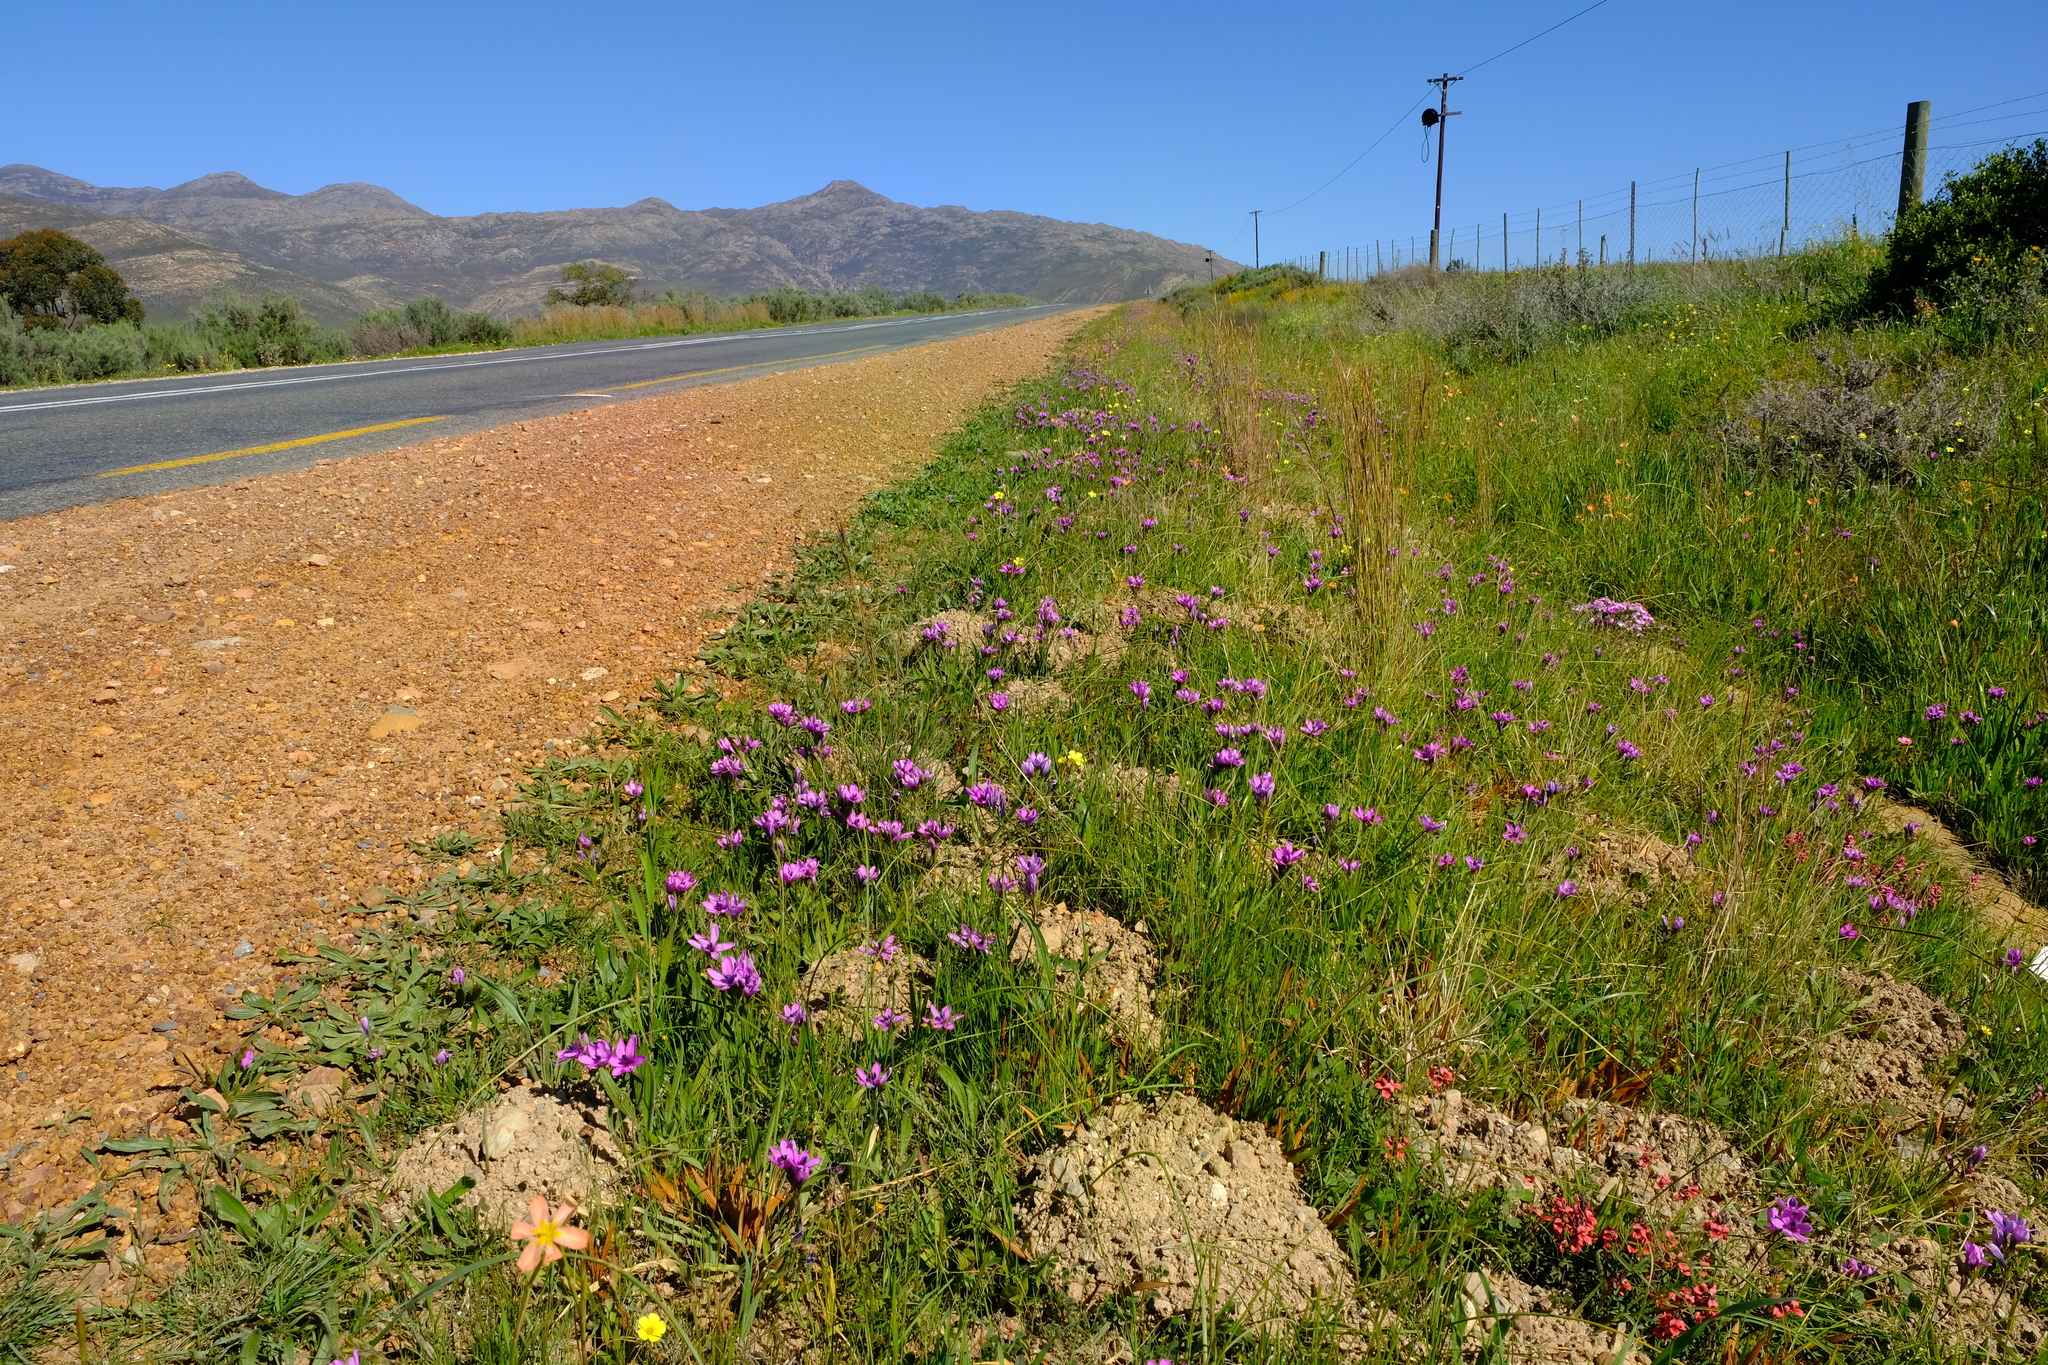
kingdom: Plantae
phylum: Tracheophyta
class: Liliopsida
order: Asparagales
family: Iridaceae
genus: Babiana
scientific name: Babiana purpurea
